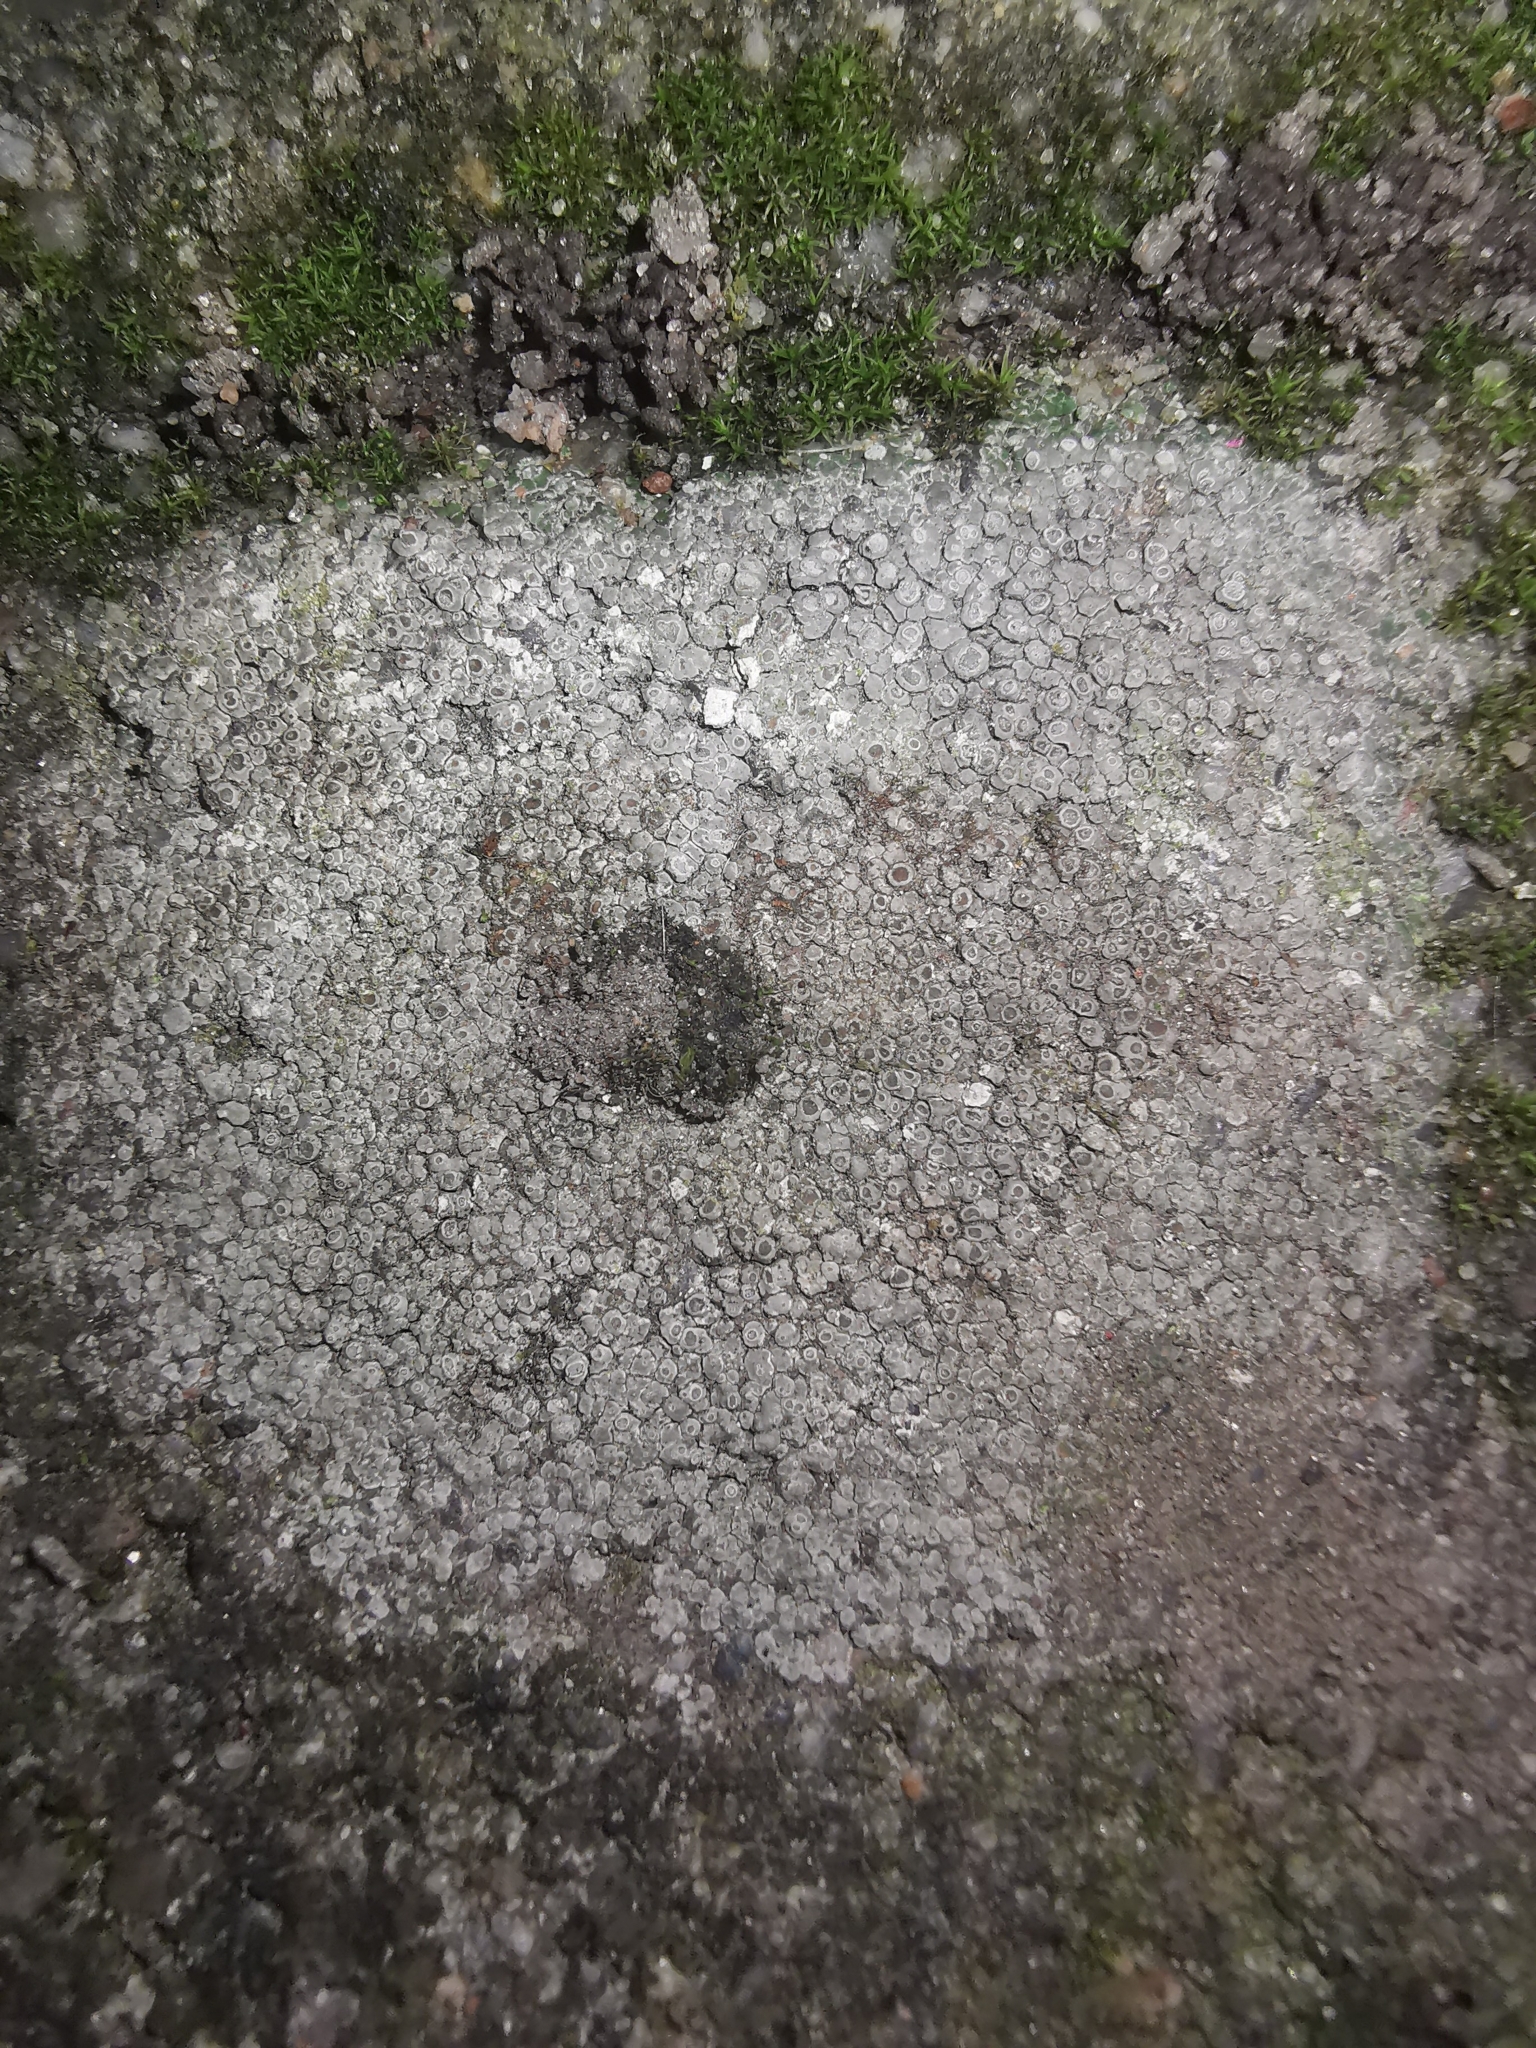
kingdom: Fungi
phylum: Ascomycota
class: Lecanoromycetes
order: Pertusariales
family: Megasporaceae
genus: Circinaria
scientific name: Circinaria contorta
